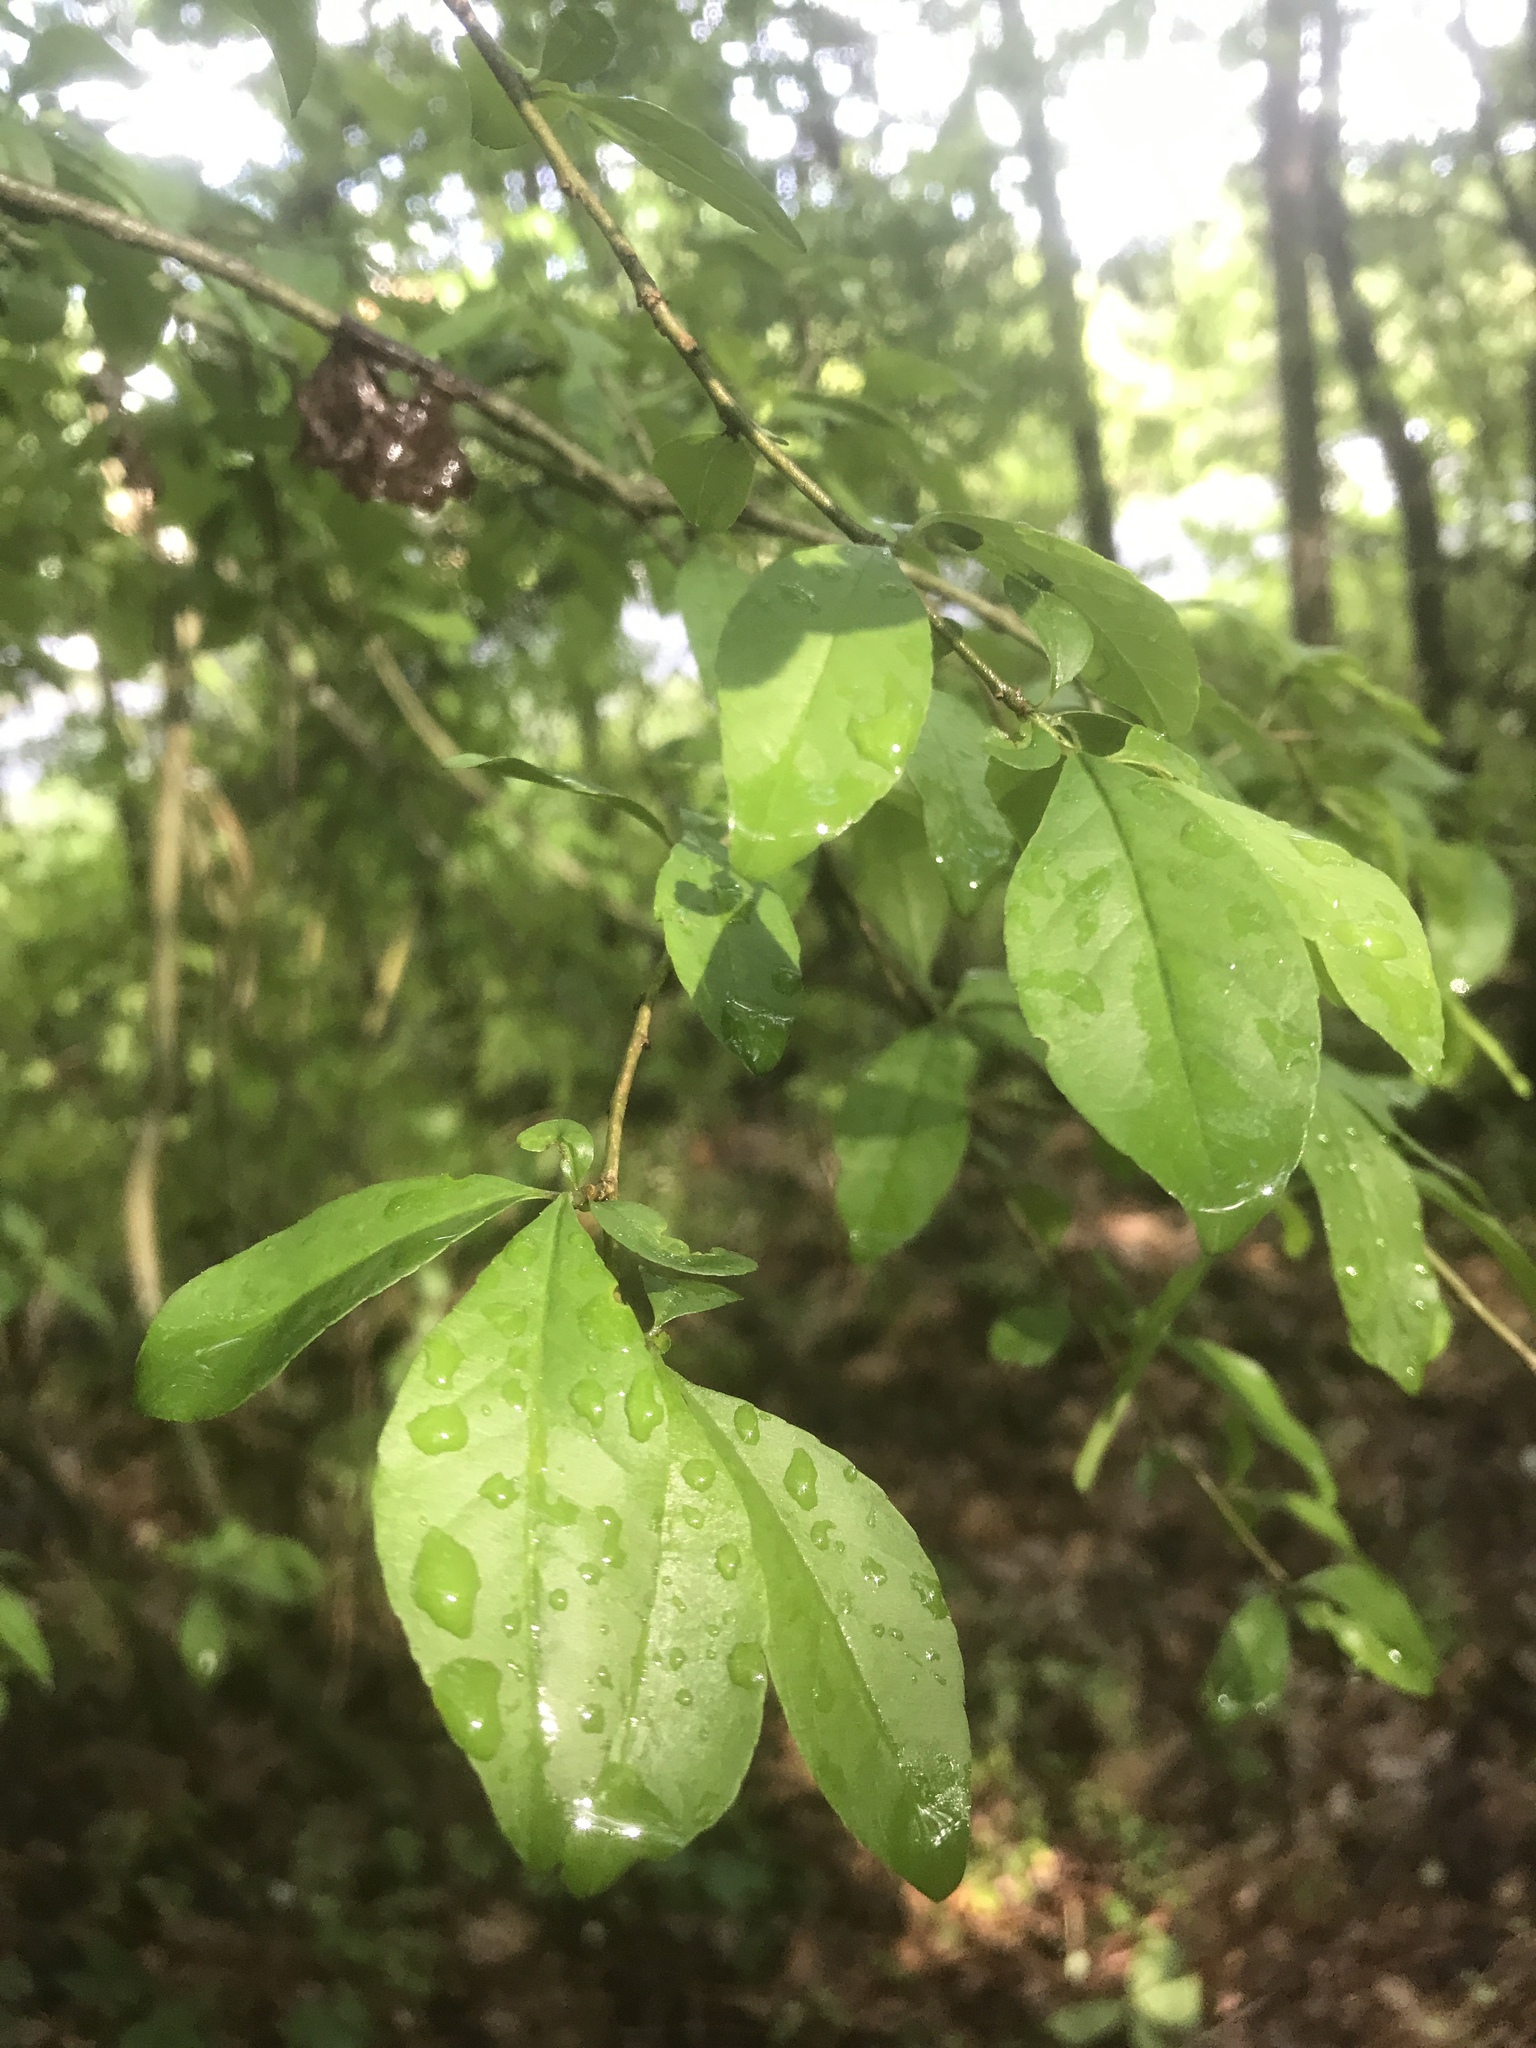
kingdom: Plantae
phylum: Tracheophyta
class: Magnoliopsida
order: Aquifoliales
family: Aquifoliaceae
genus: Ilex
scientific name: Ilex decidua
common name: Possum-haw
